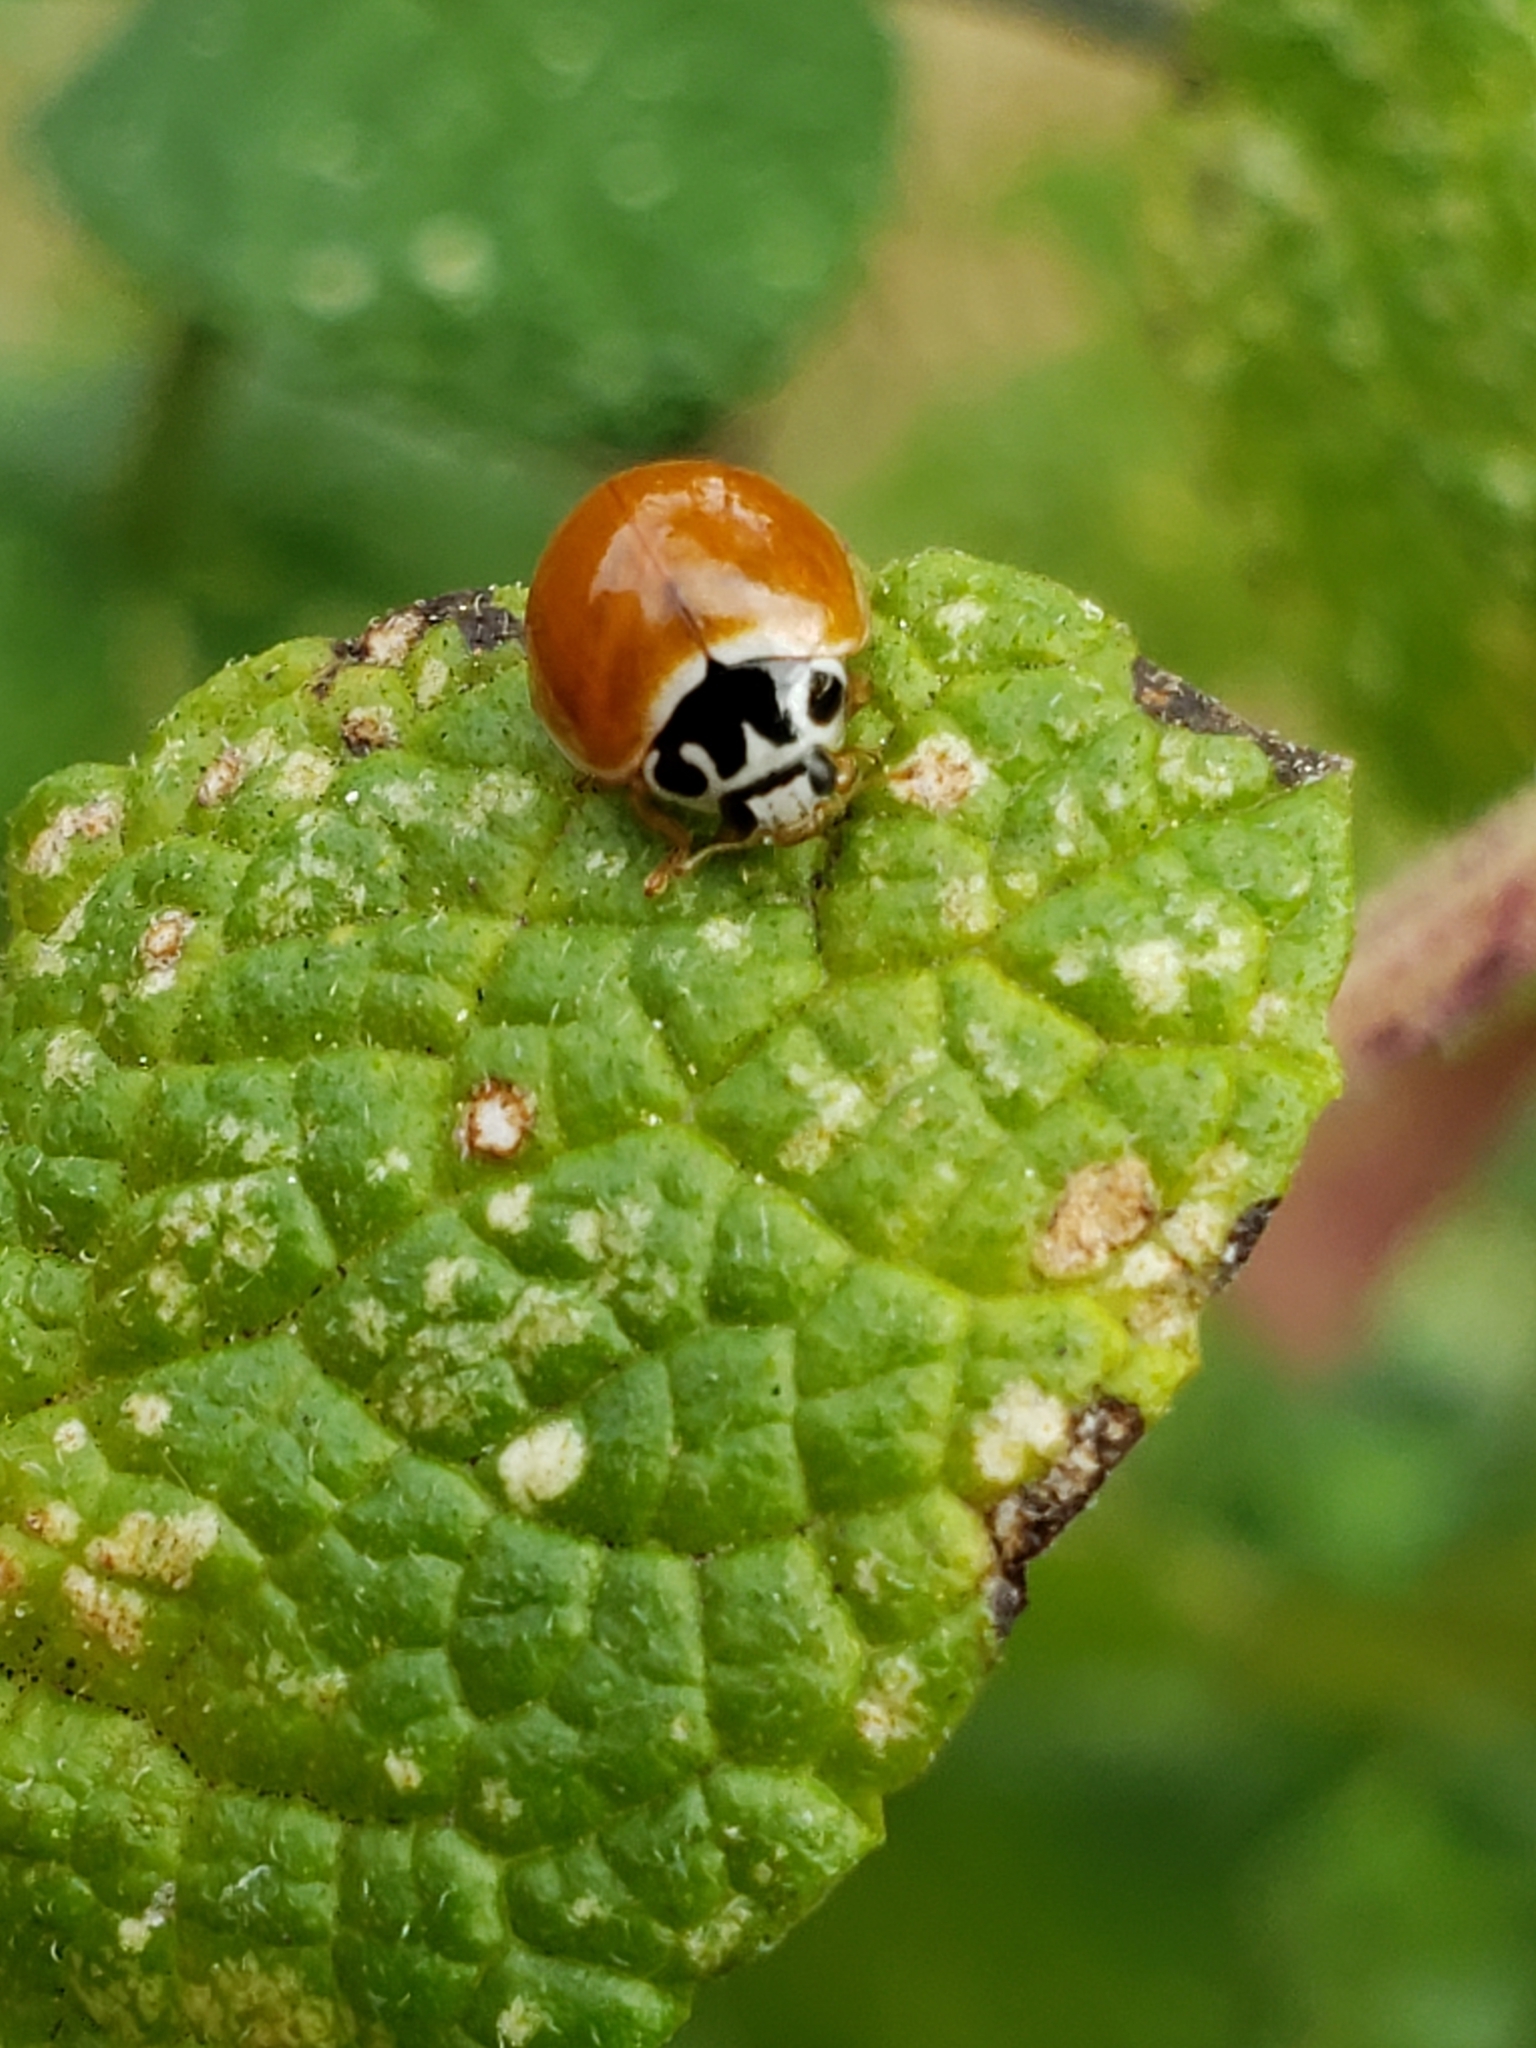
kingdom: Animalia
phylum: Arthropoda
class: Insecta
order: Coleoptera
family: Coccinellidae
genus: Cycloneda
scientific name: Cycloneda munda
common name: Polished lady beetle
